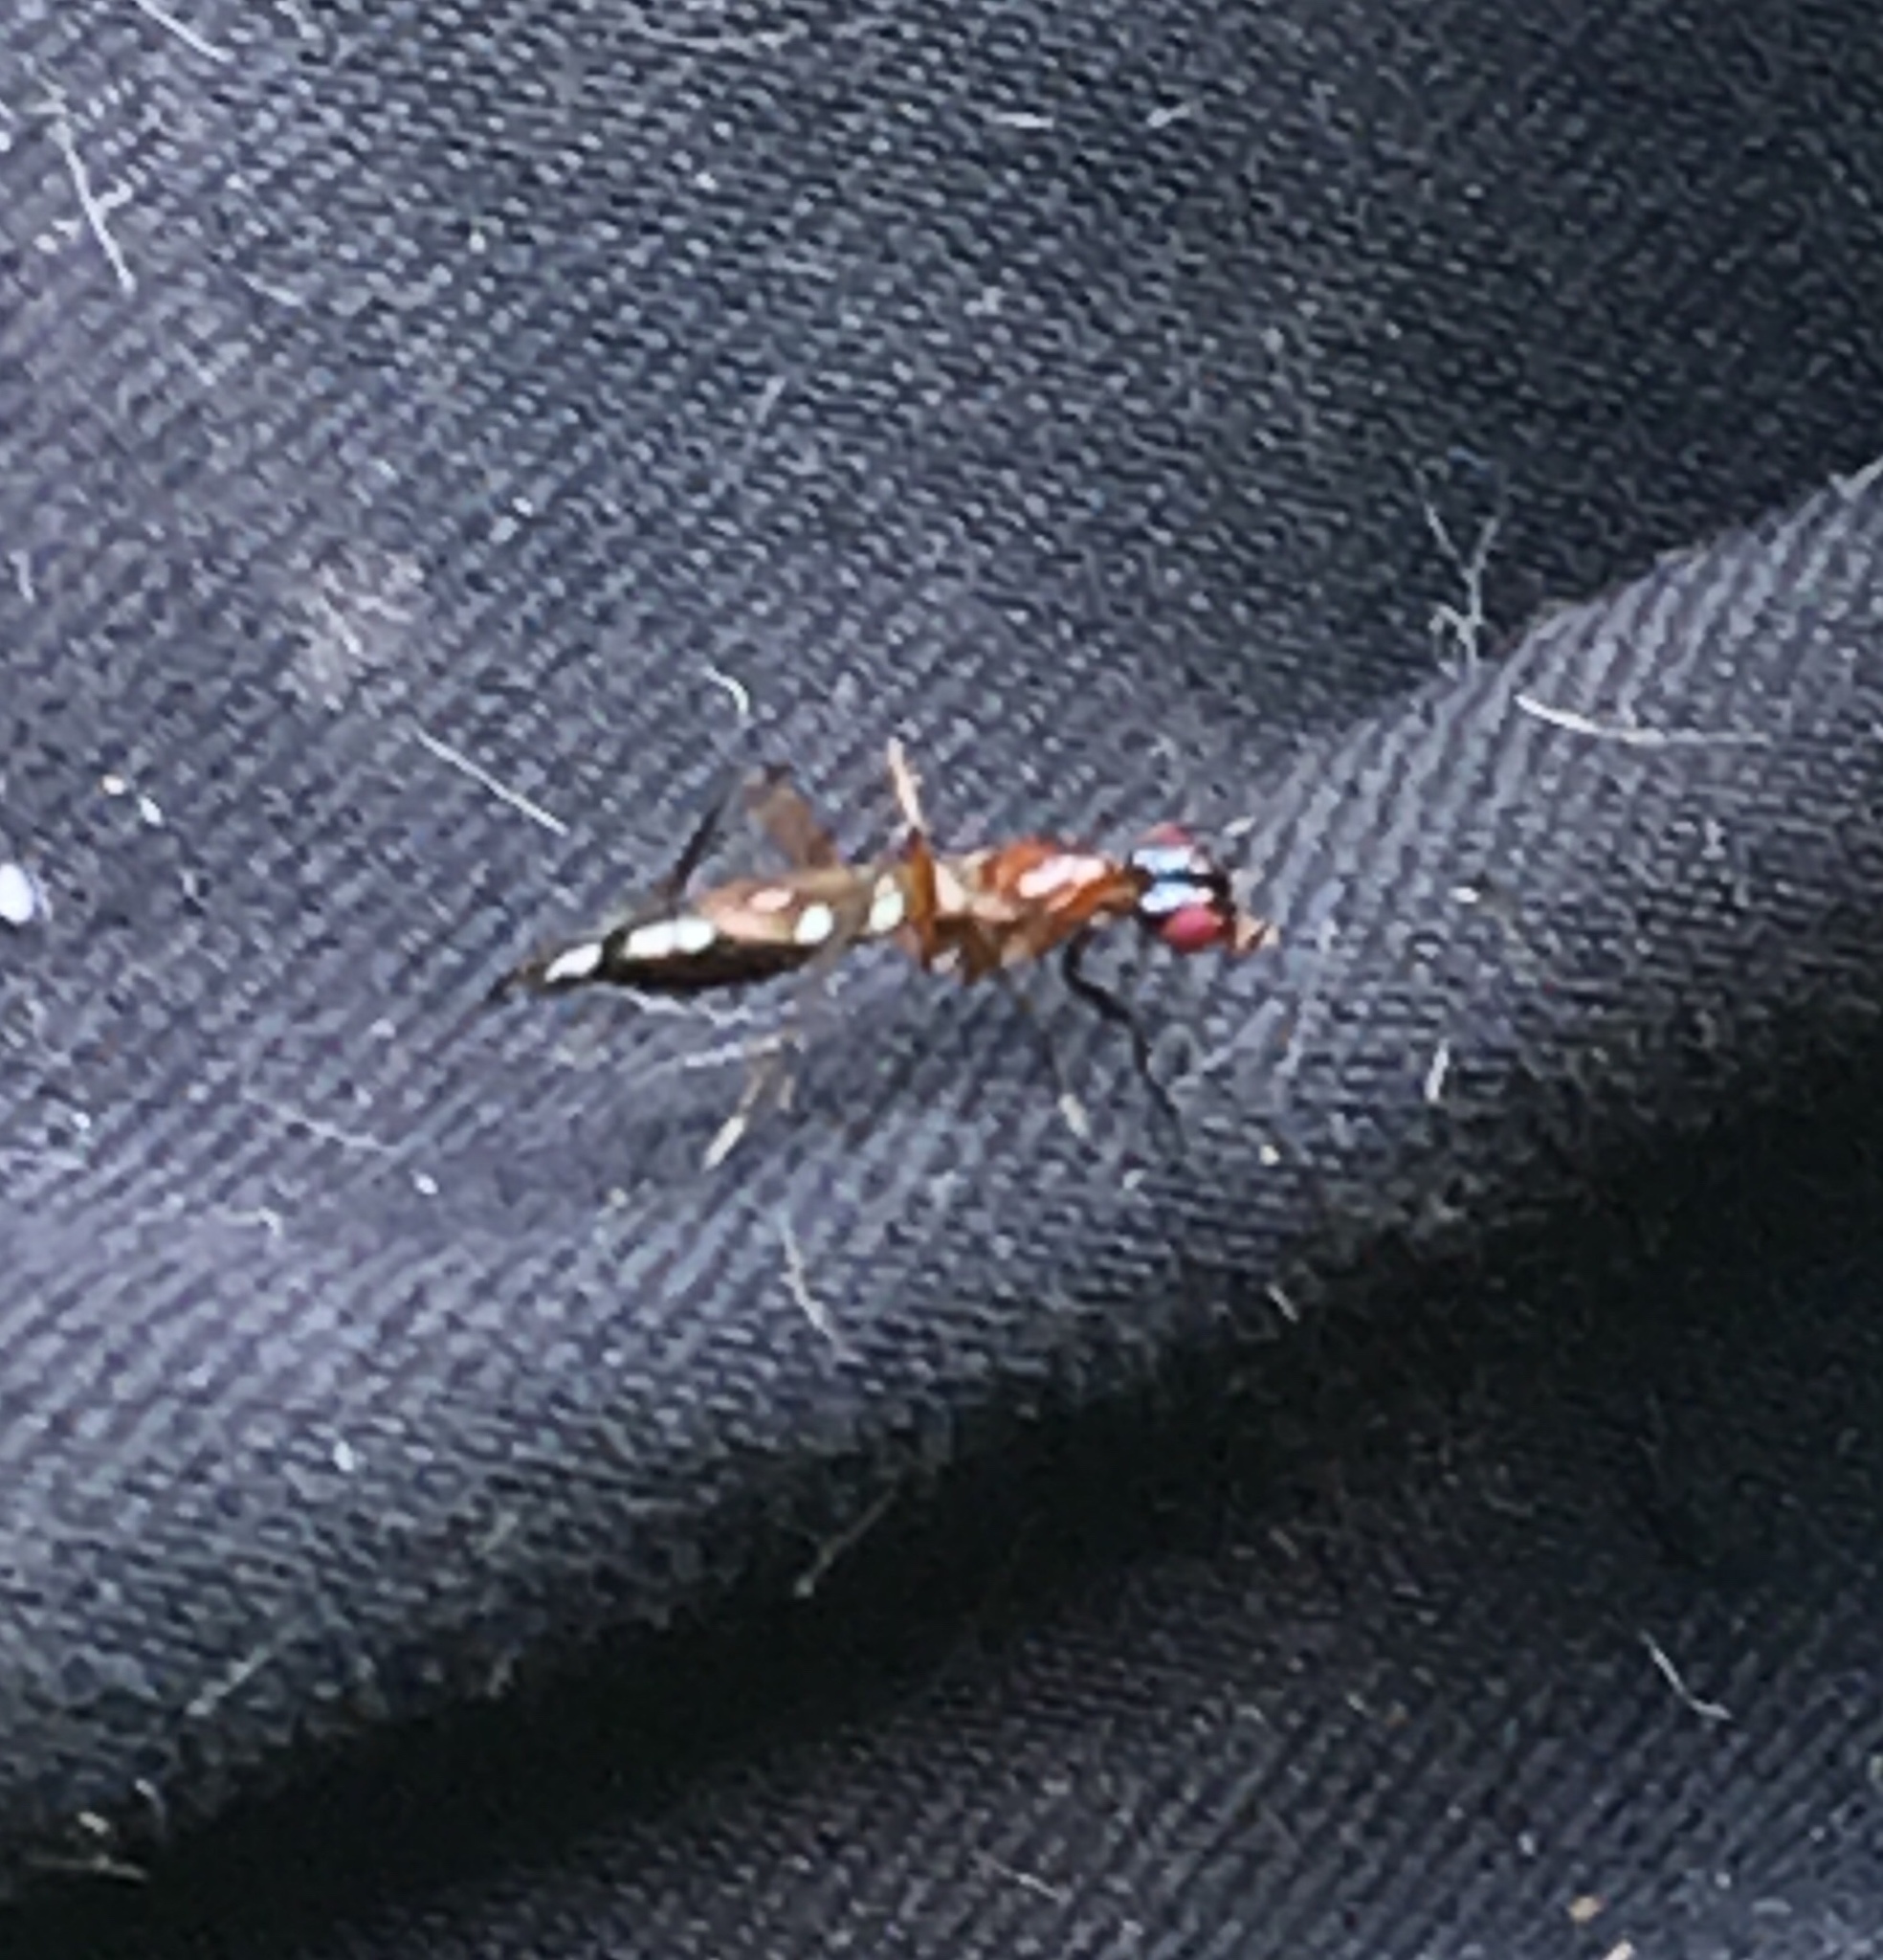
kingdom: Animalia
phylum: Arthropoda
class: Insecta
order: Diptera
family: Micropezidae
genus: Cardiacephala
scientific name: Cardiacephala guttata
